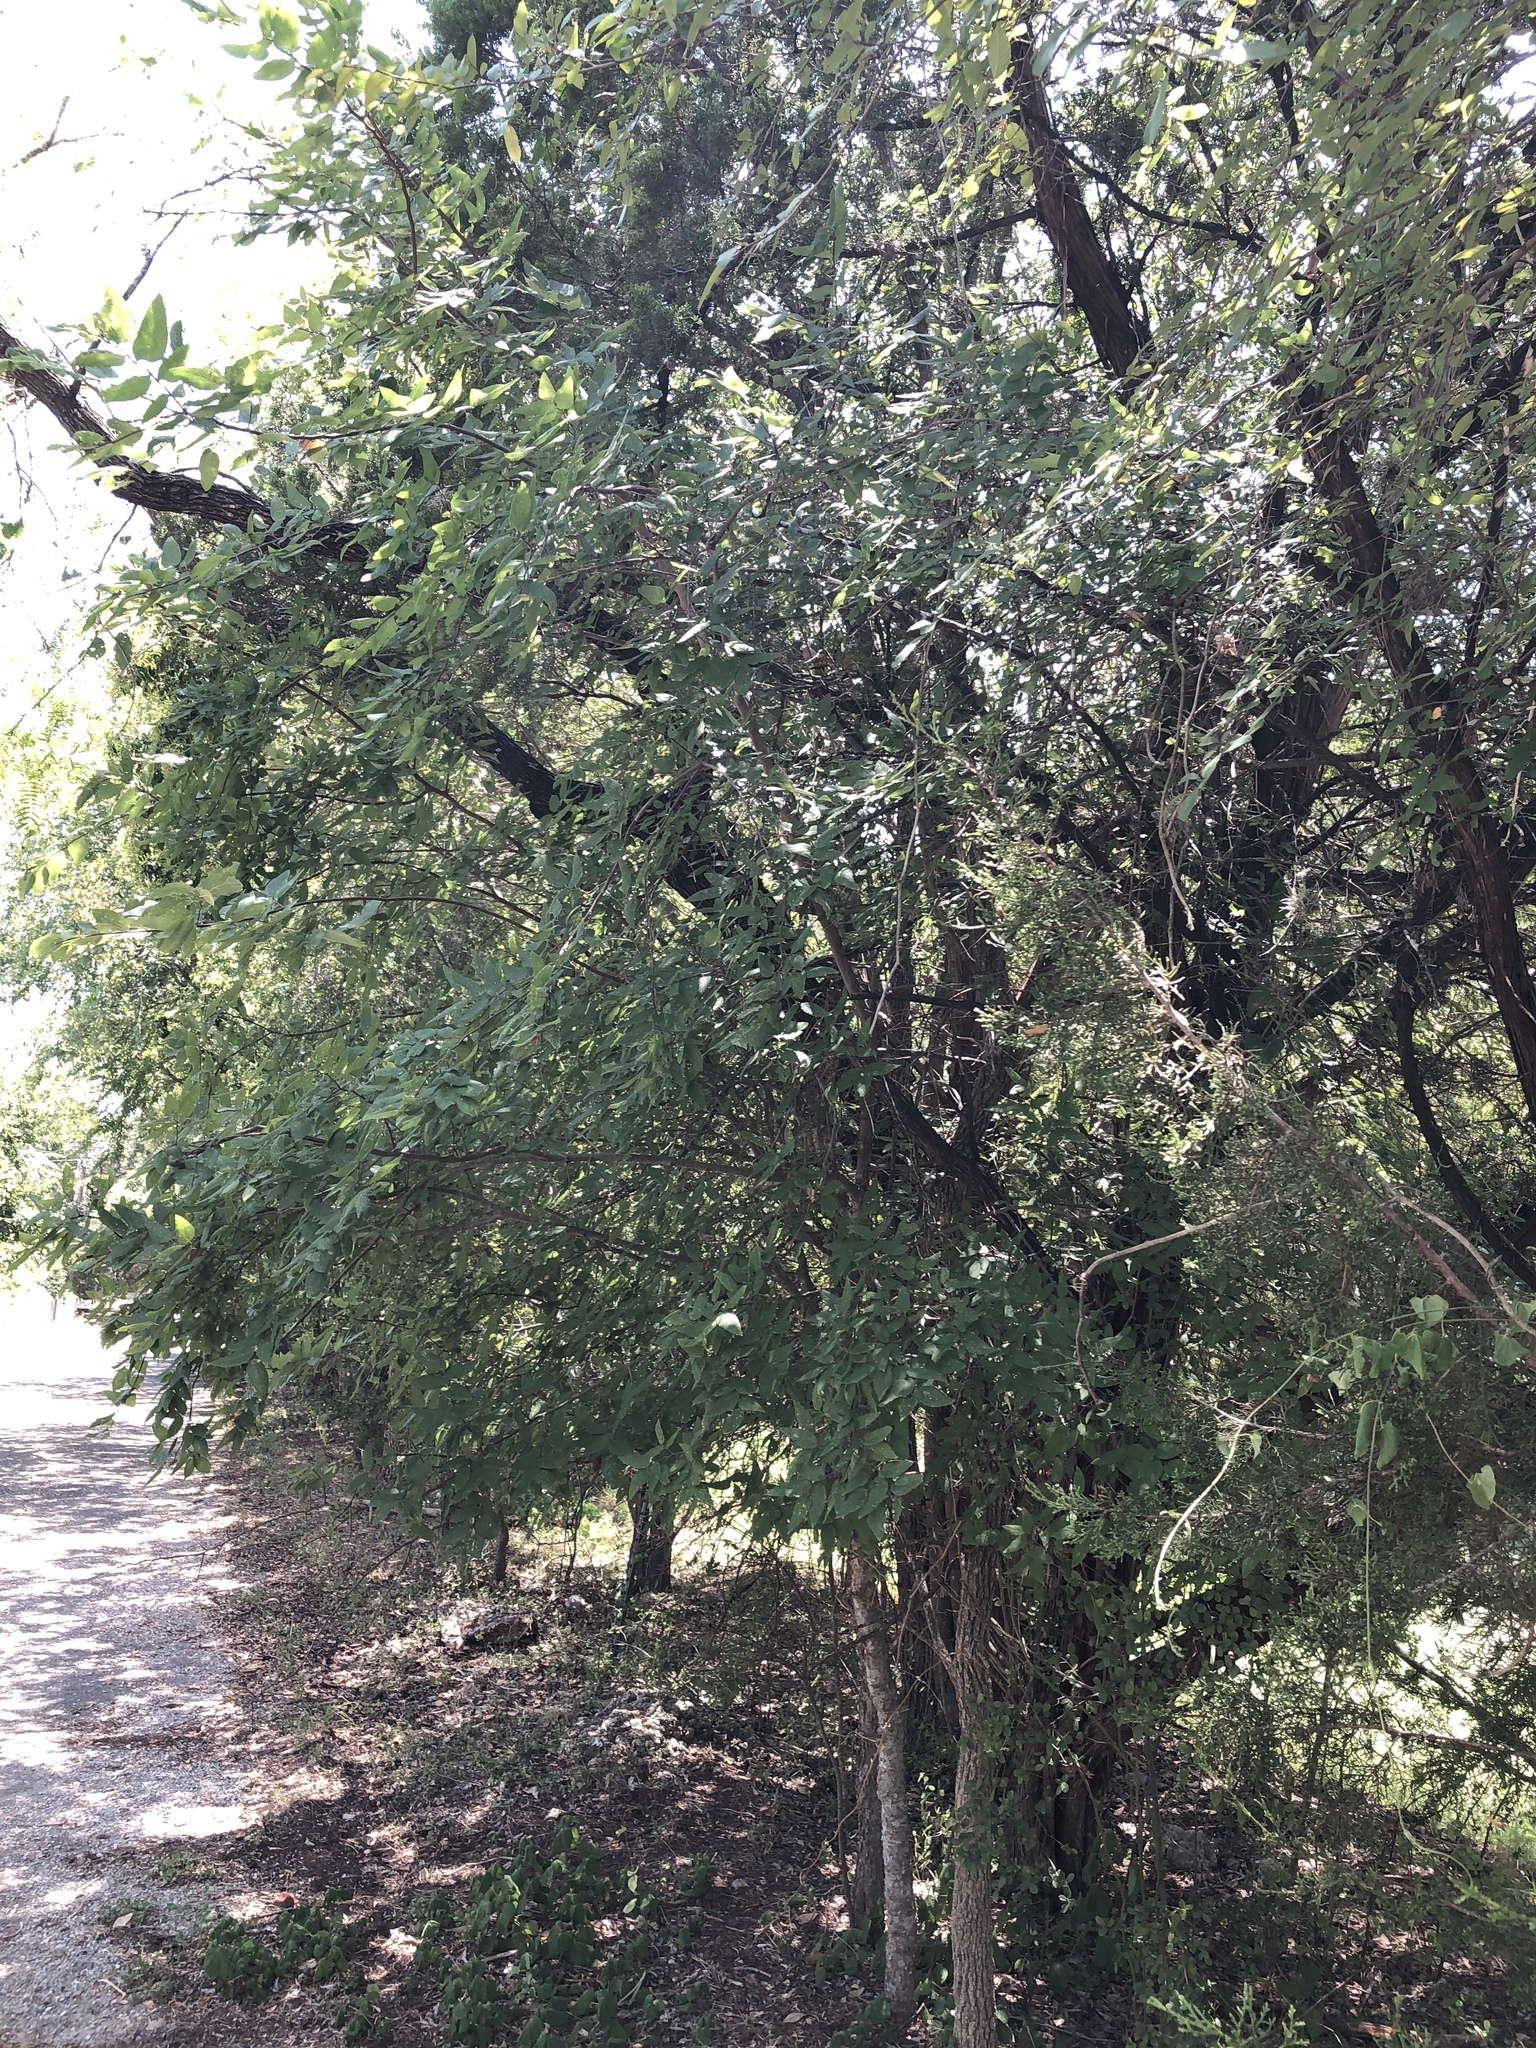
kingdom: Plantae
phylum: Tracheophyta
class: Magnoliopsida
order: Rosales
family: Cannabaceae
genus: Celtis
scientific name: Celtis reticulata
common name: Netleaf hackberry
